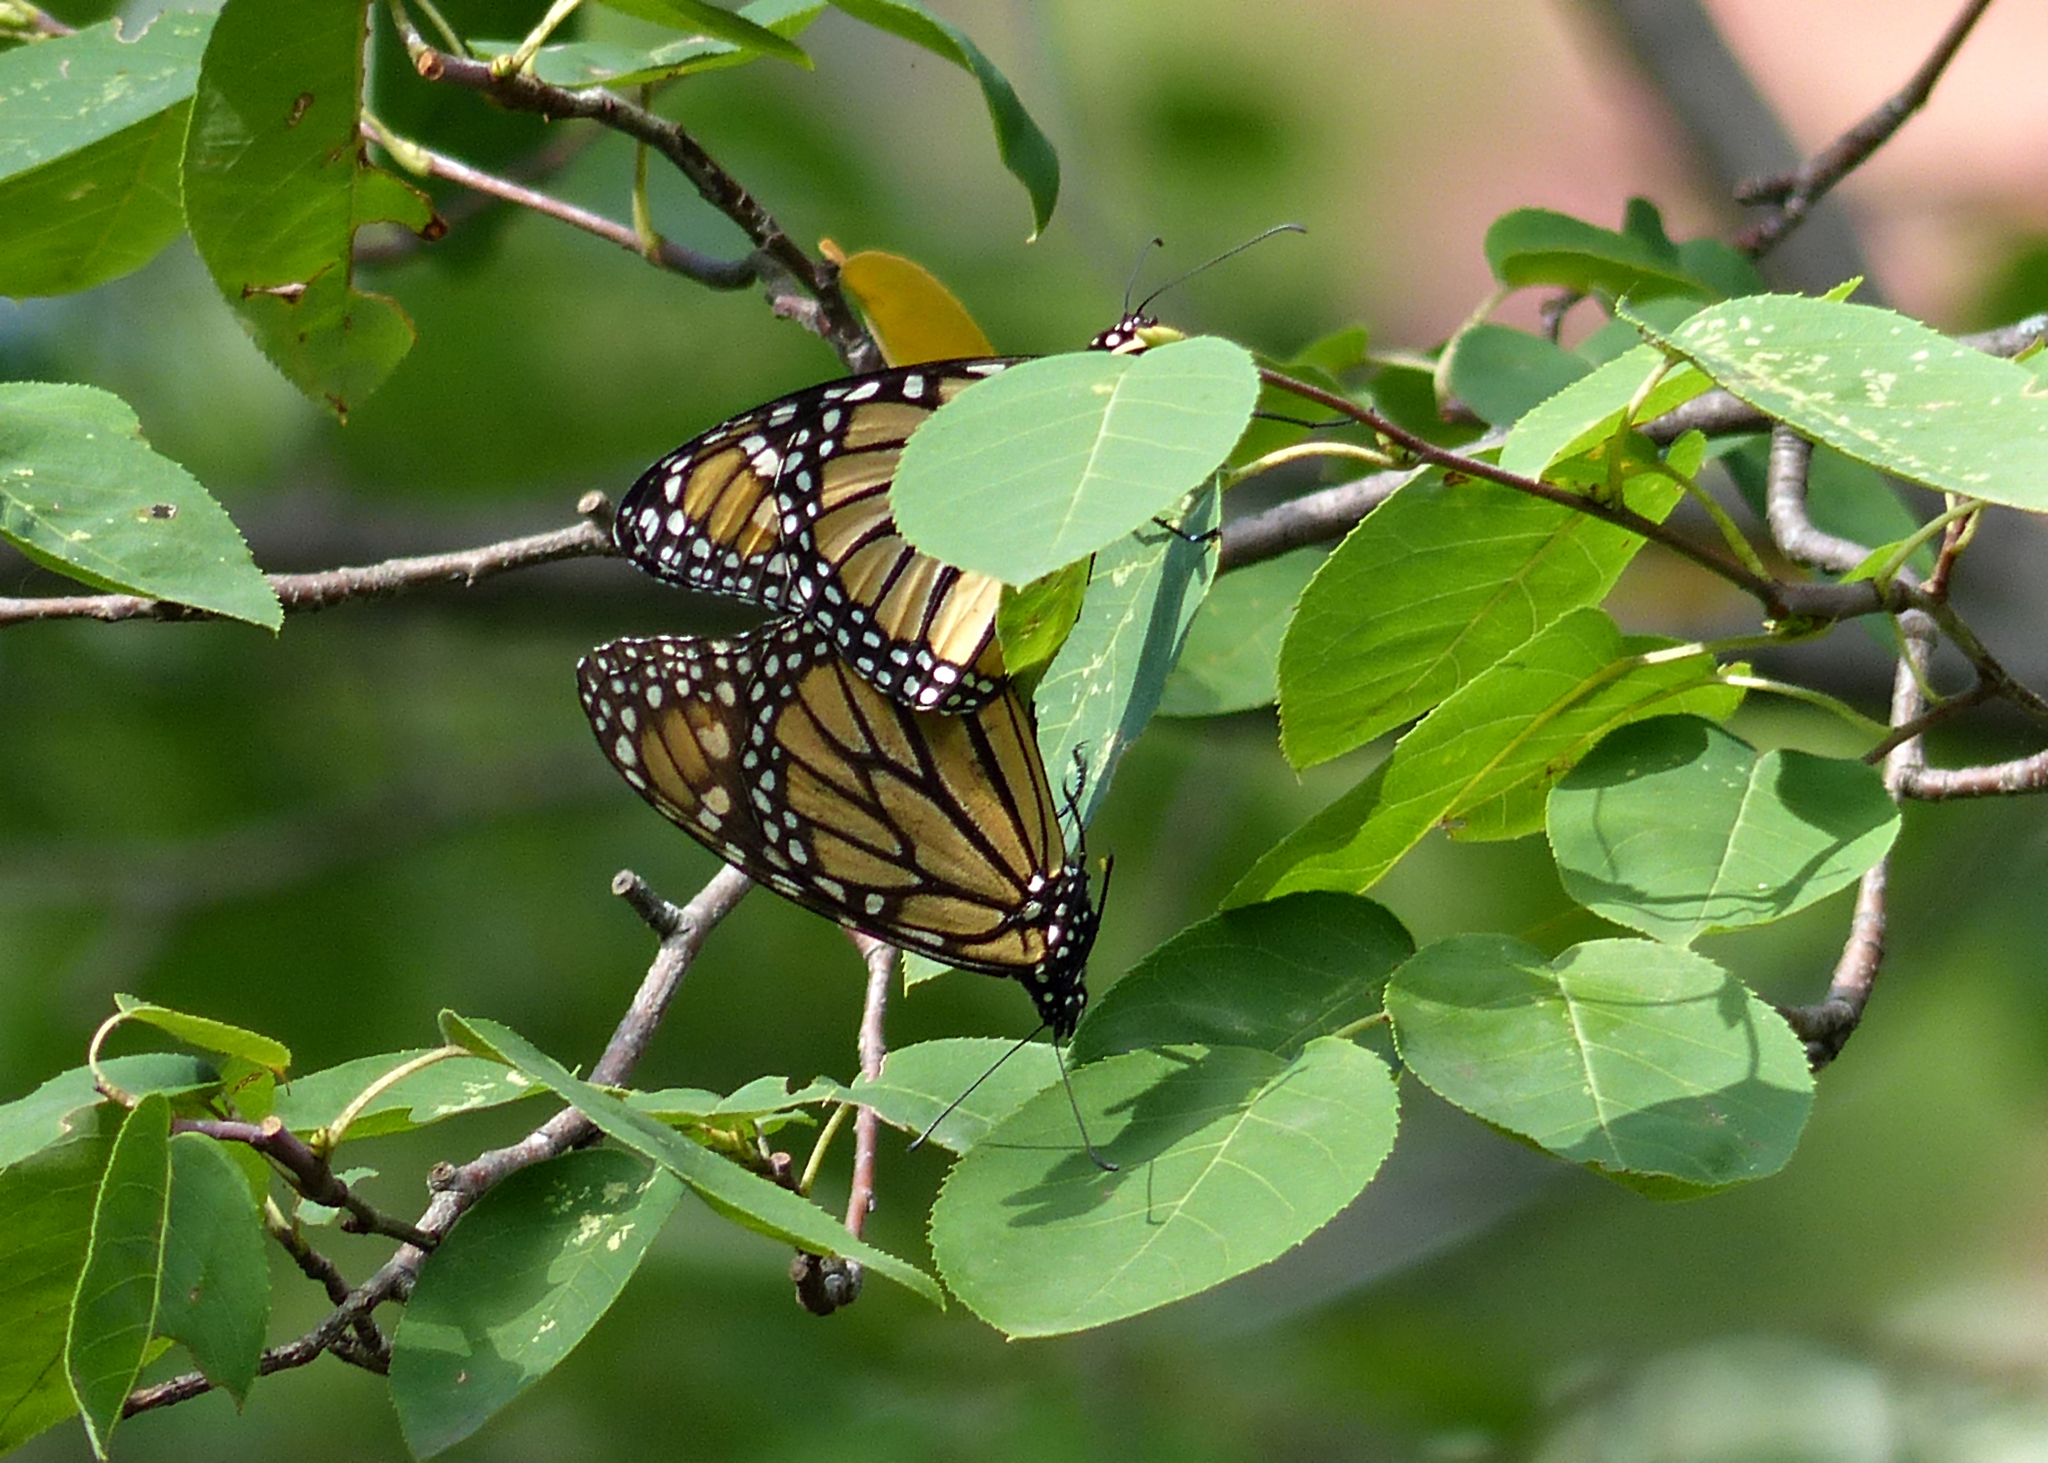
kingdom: Animalia
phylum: Arthropoda
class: Insecta
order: Lepidoptera
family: Nymphalidae
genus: Danaus
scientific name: Danaus plexippus
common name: Monarch
